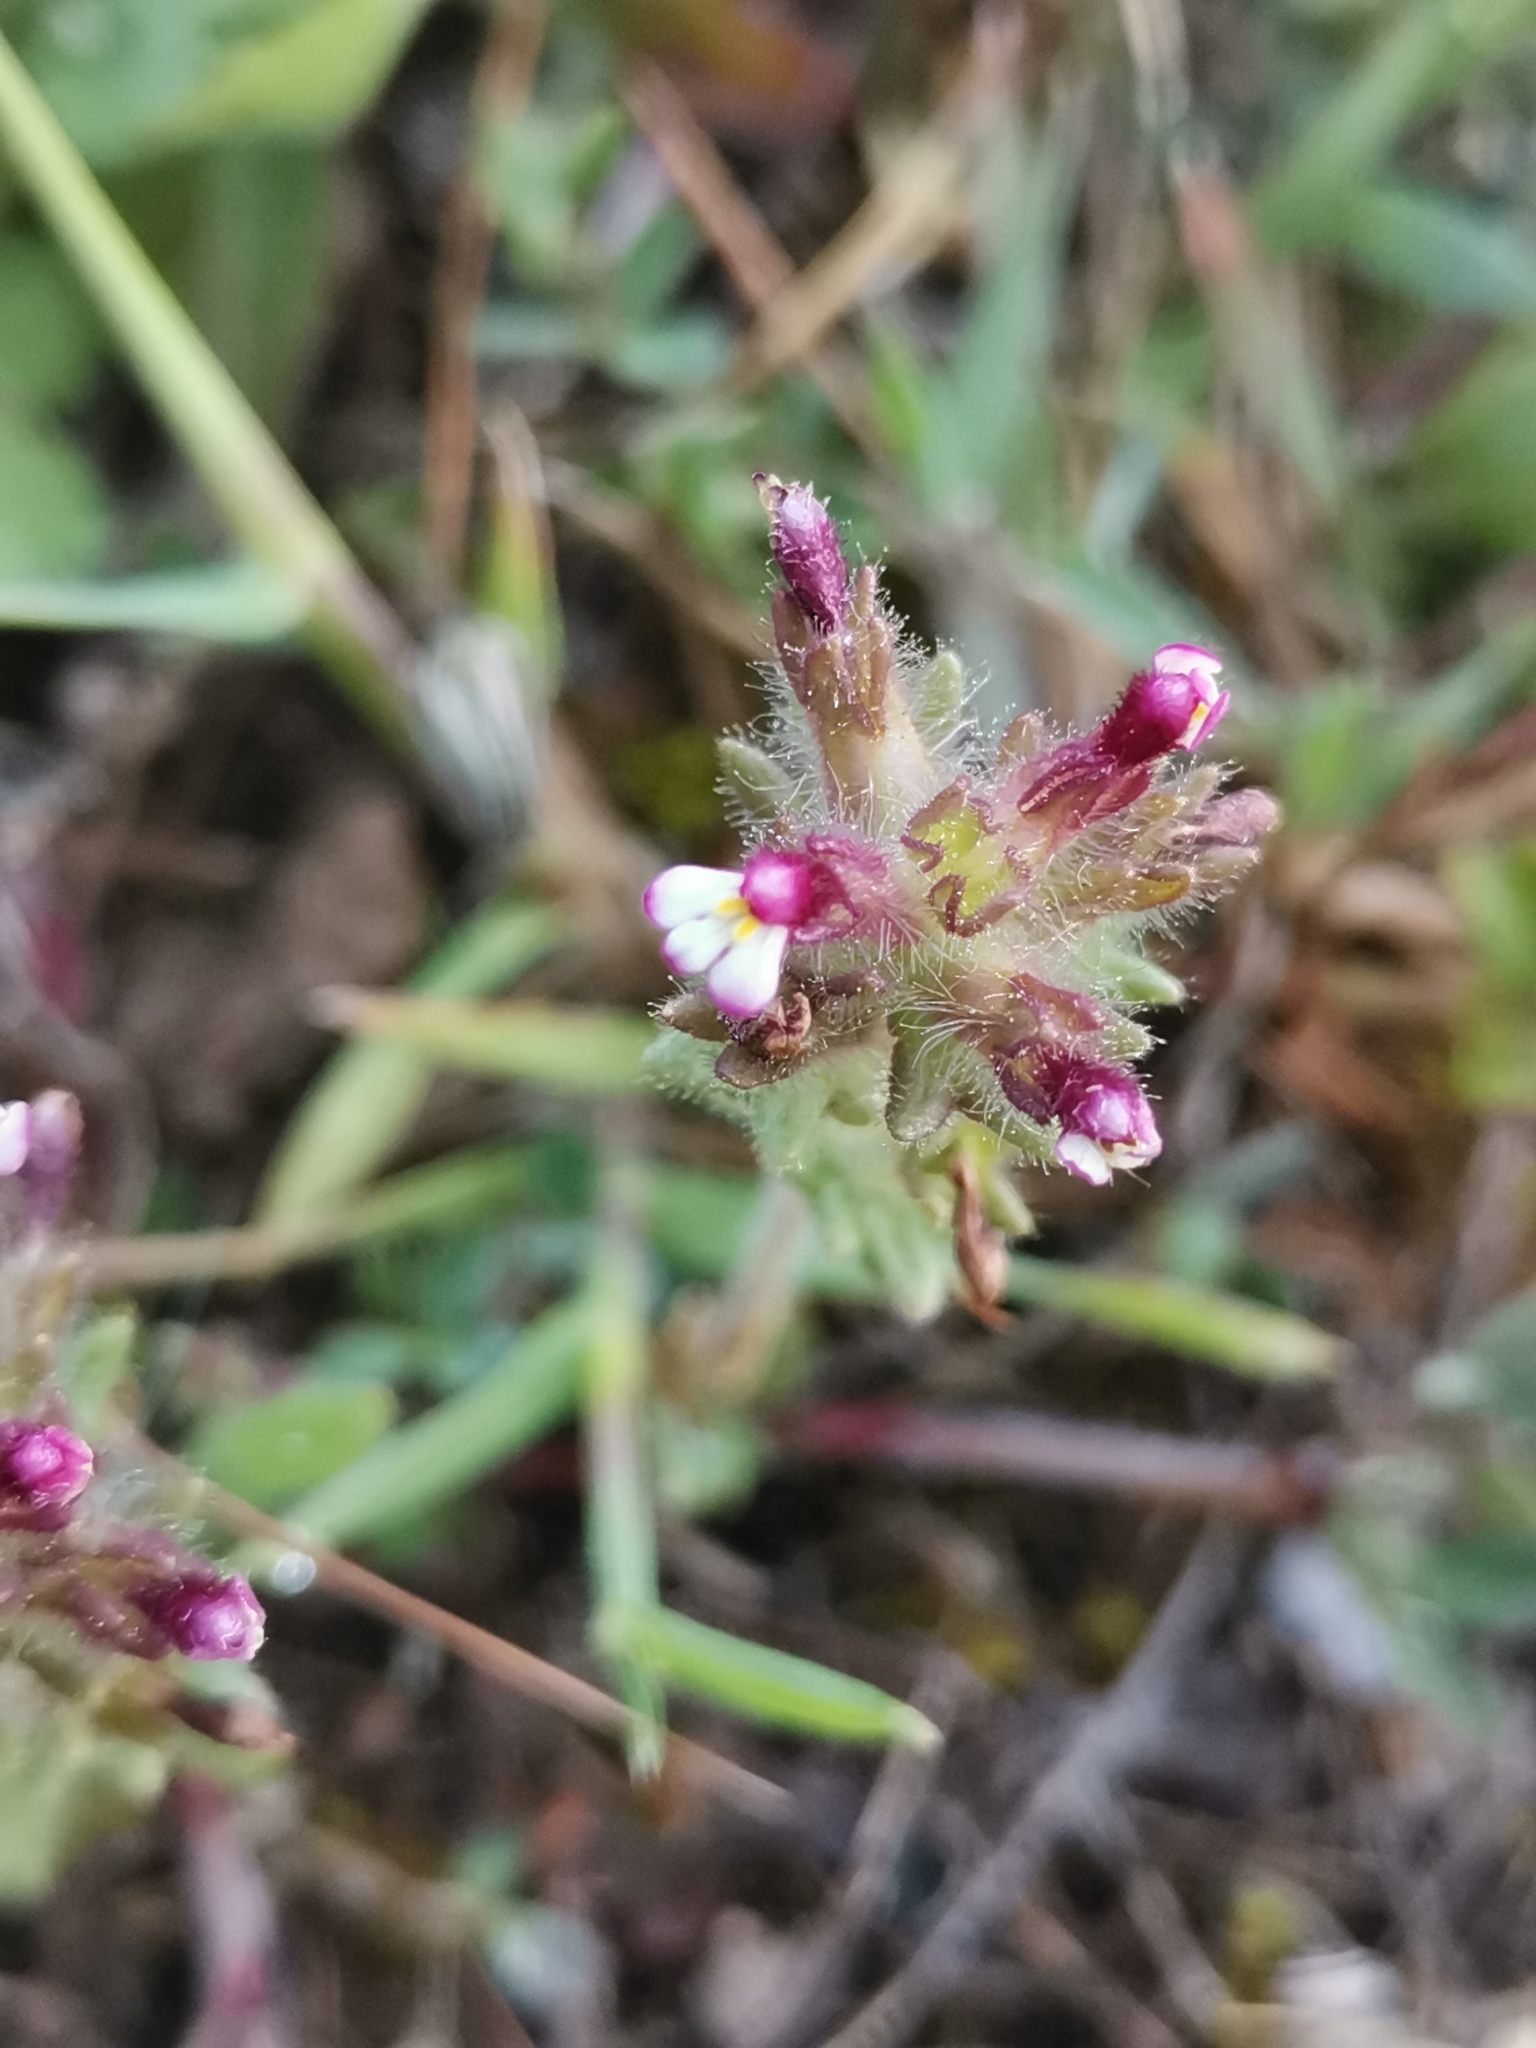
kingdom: Plantae
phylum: Tracheophyta
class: Magnoliopsida
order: Lamiales
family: Orobanchaceae
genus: Parentucellia
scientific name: Parentucellia latifolia
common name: Broadleaf glandweed
